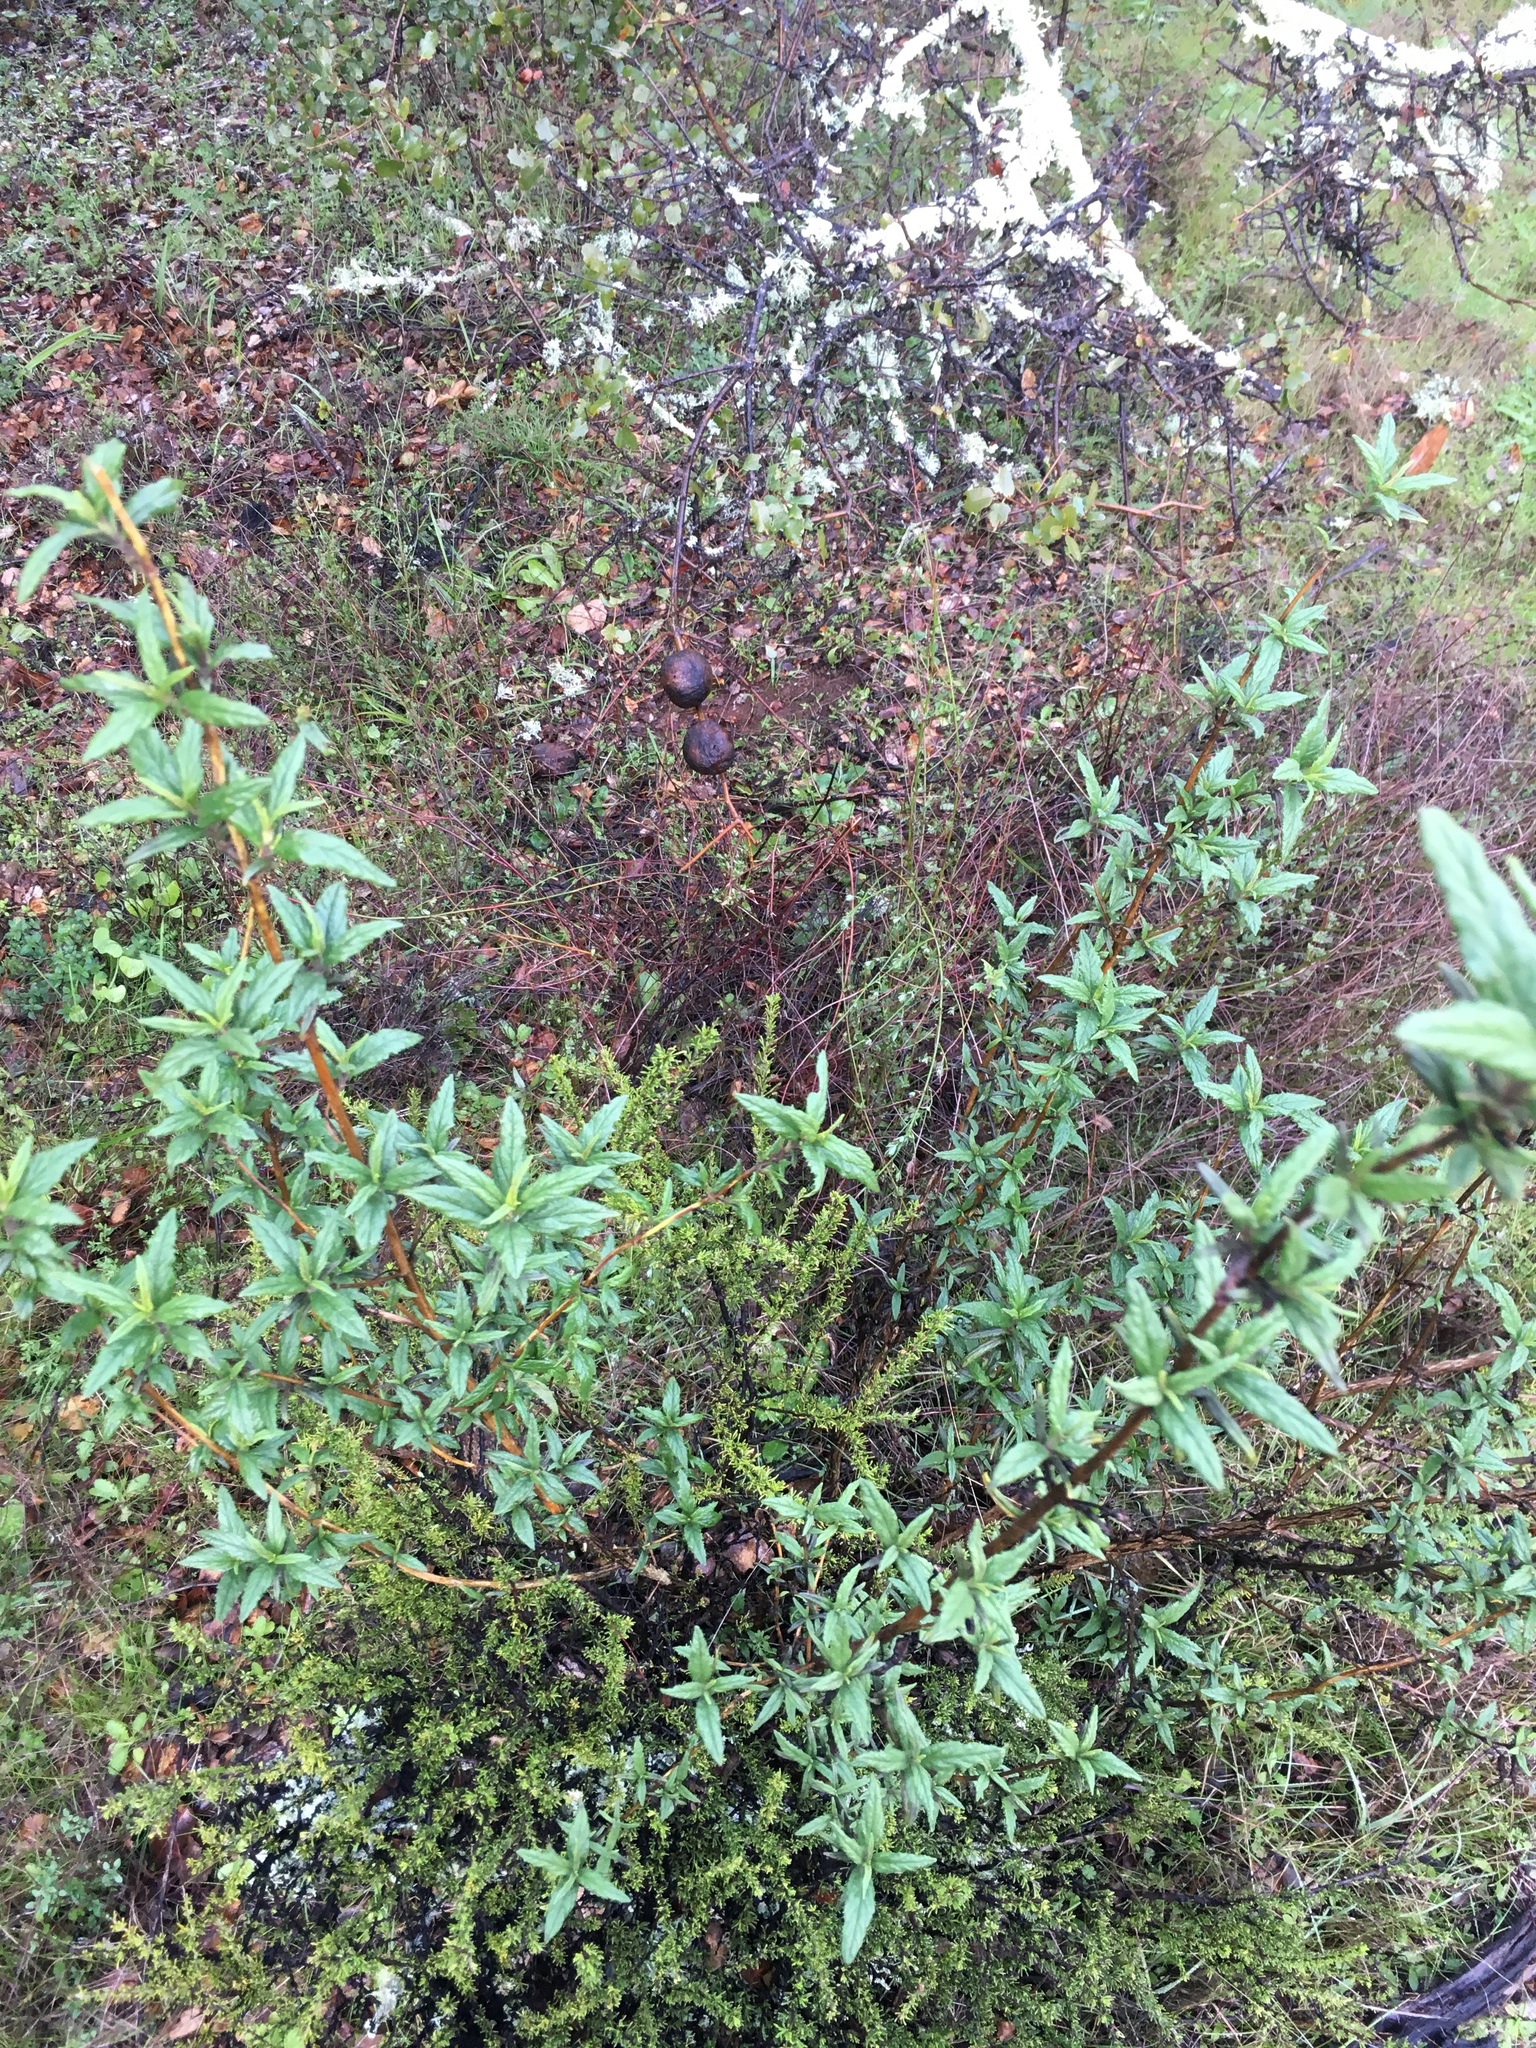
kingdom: Plantae
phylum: Tracheophyta
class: Magnoliopsida
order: Lamiales
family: Phrymaceae
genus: Diplacus
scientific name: Diplacus aurantiacus
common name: Bush monkey-flower
